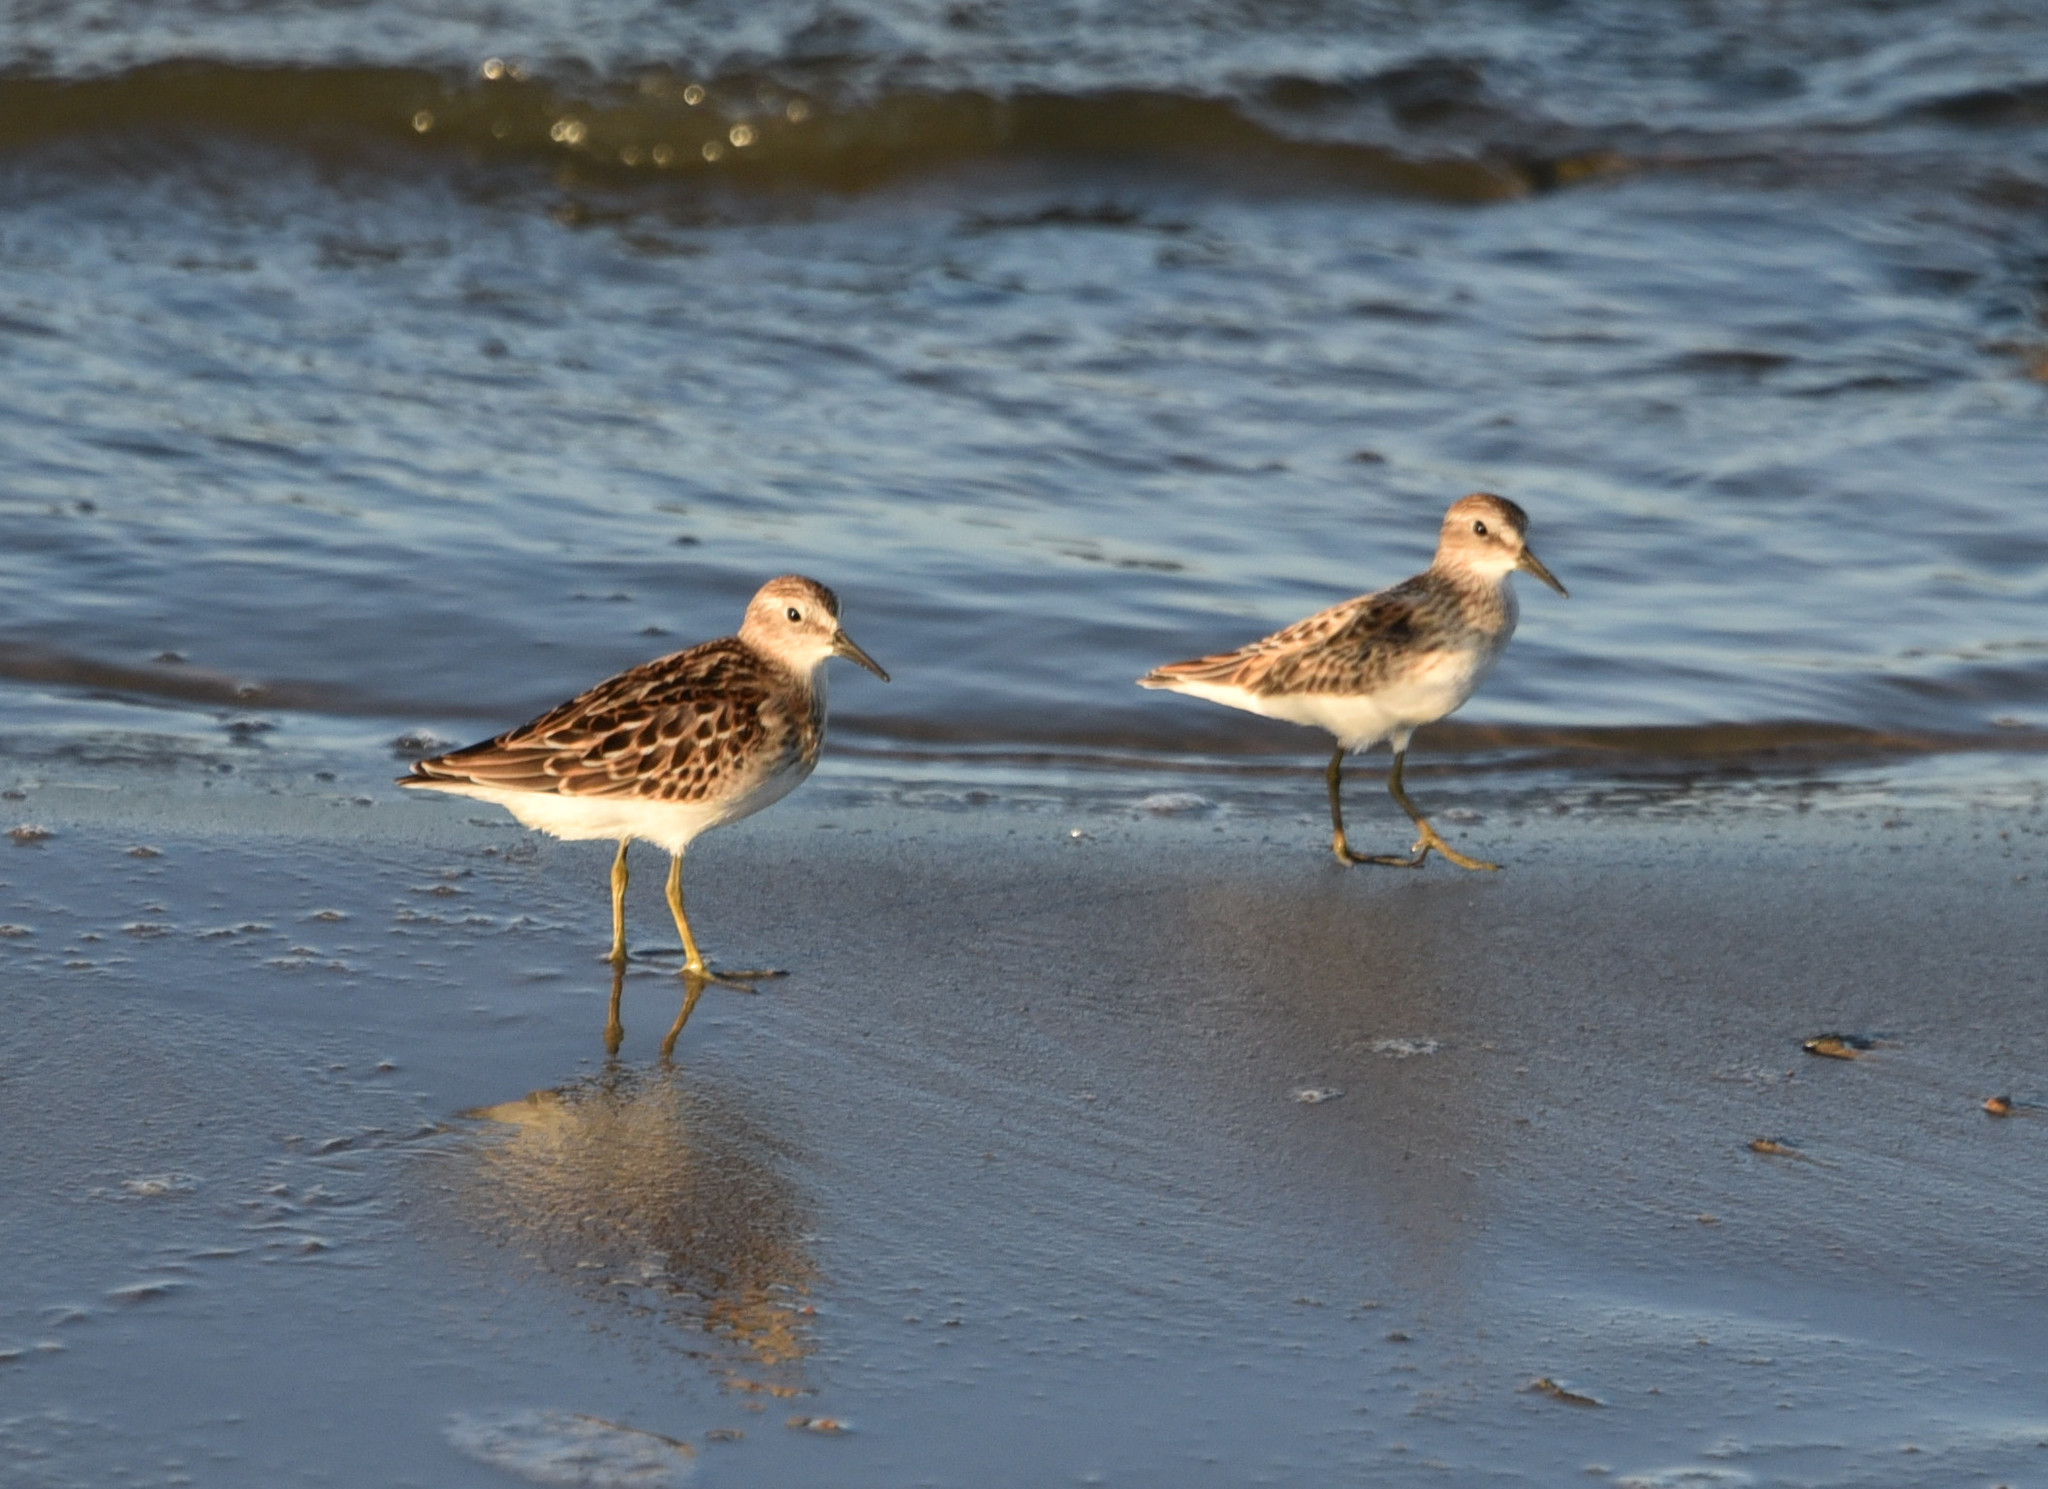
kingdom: Animalia
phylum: Chordata
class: Aves
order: Charadriiformes
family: Scolopacidae
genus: Calidris
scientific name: Calidris minutilla
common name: Least sandpiper
